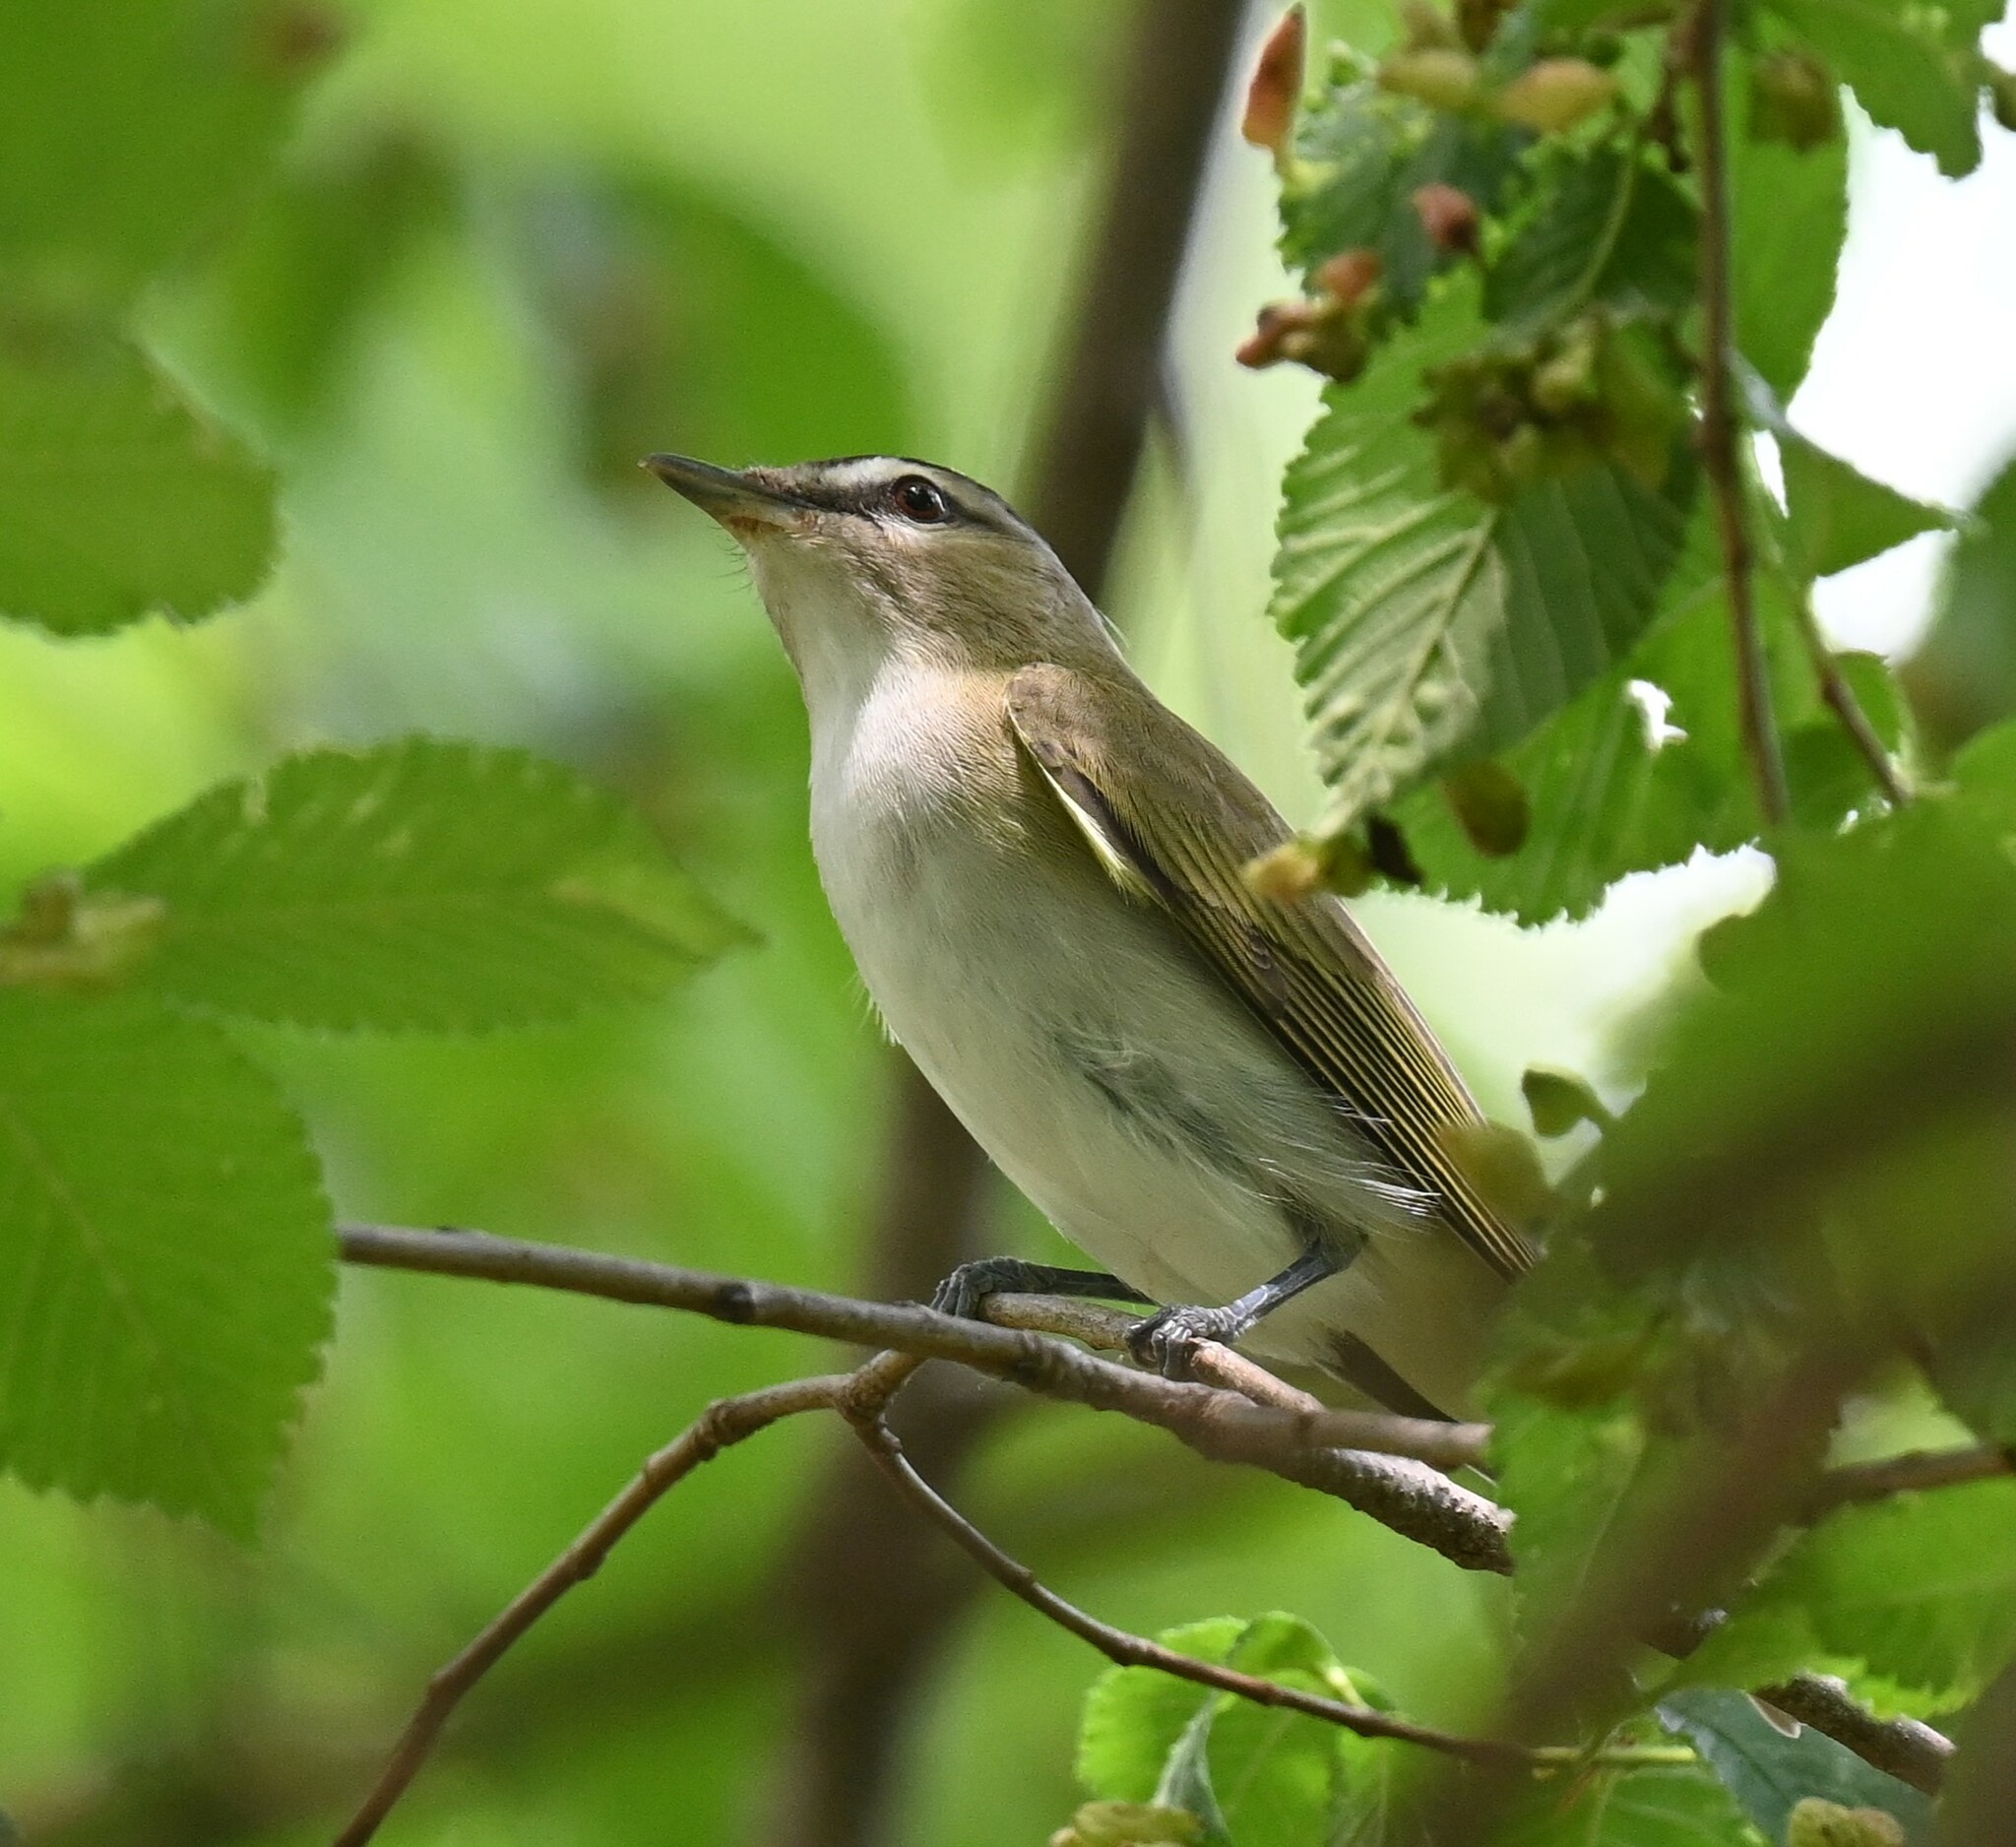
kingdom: Animalia
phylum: Chordata
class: Aves
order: Passeriformes
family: Vireonidae
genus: Vireo
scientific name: Vireo olivaceus
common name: Red-eyed vireo
